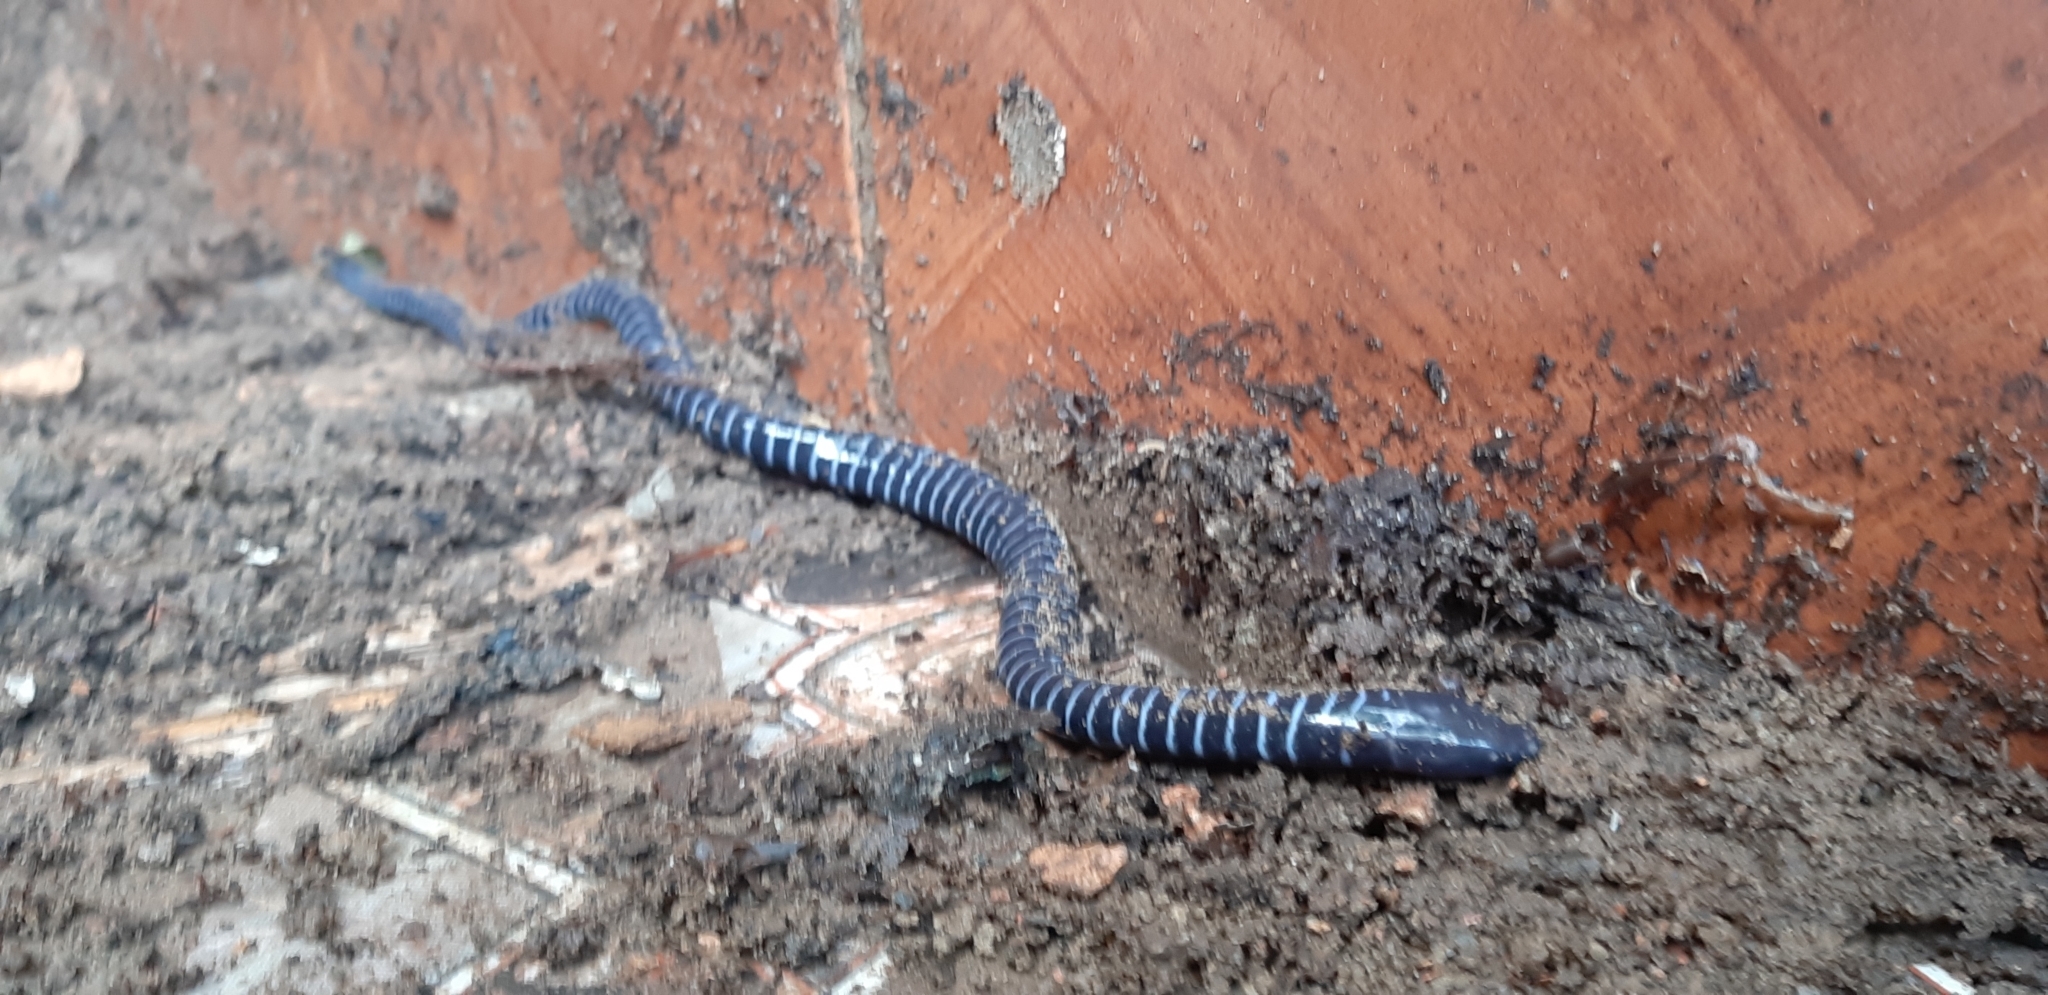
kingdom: Animalia
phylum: Chordata
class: Amphibia
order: Gymnophiona
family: Siphonopidae
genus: Siphonops
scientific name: Siphonops annulatus
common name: Ringed caecilia
